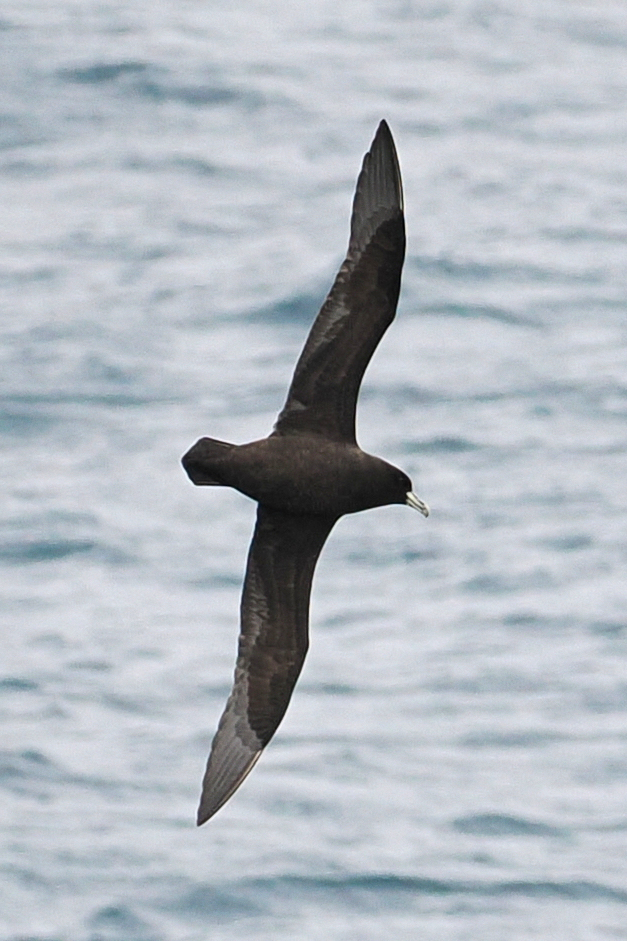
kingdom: Animalia
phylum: Chordata
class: Aves
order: Procellariiformes
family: Procellariidae
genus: Procellaria
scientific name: Procellaria aequinoctialis
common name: White-chinned petrel
